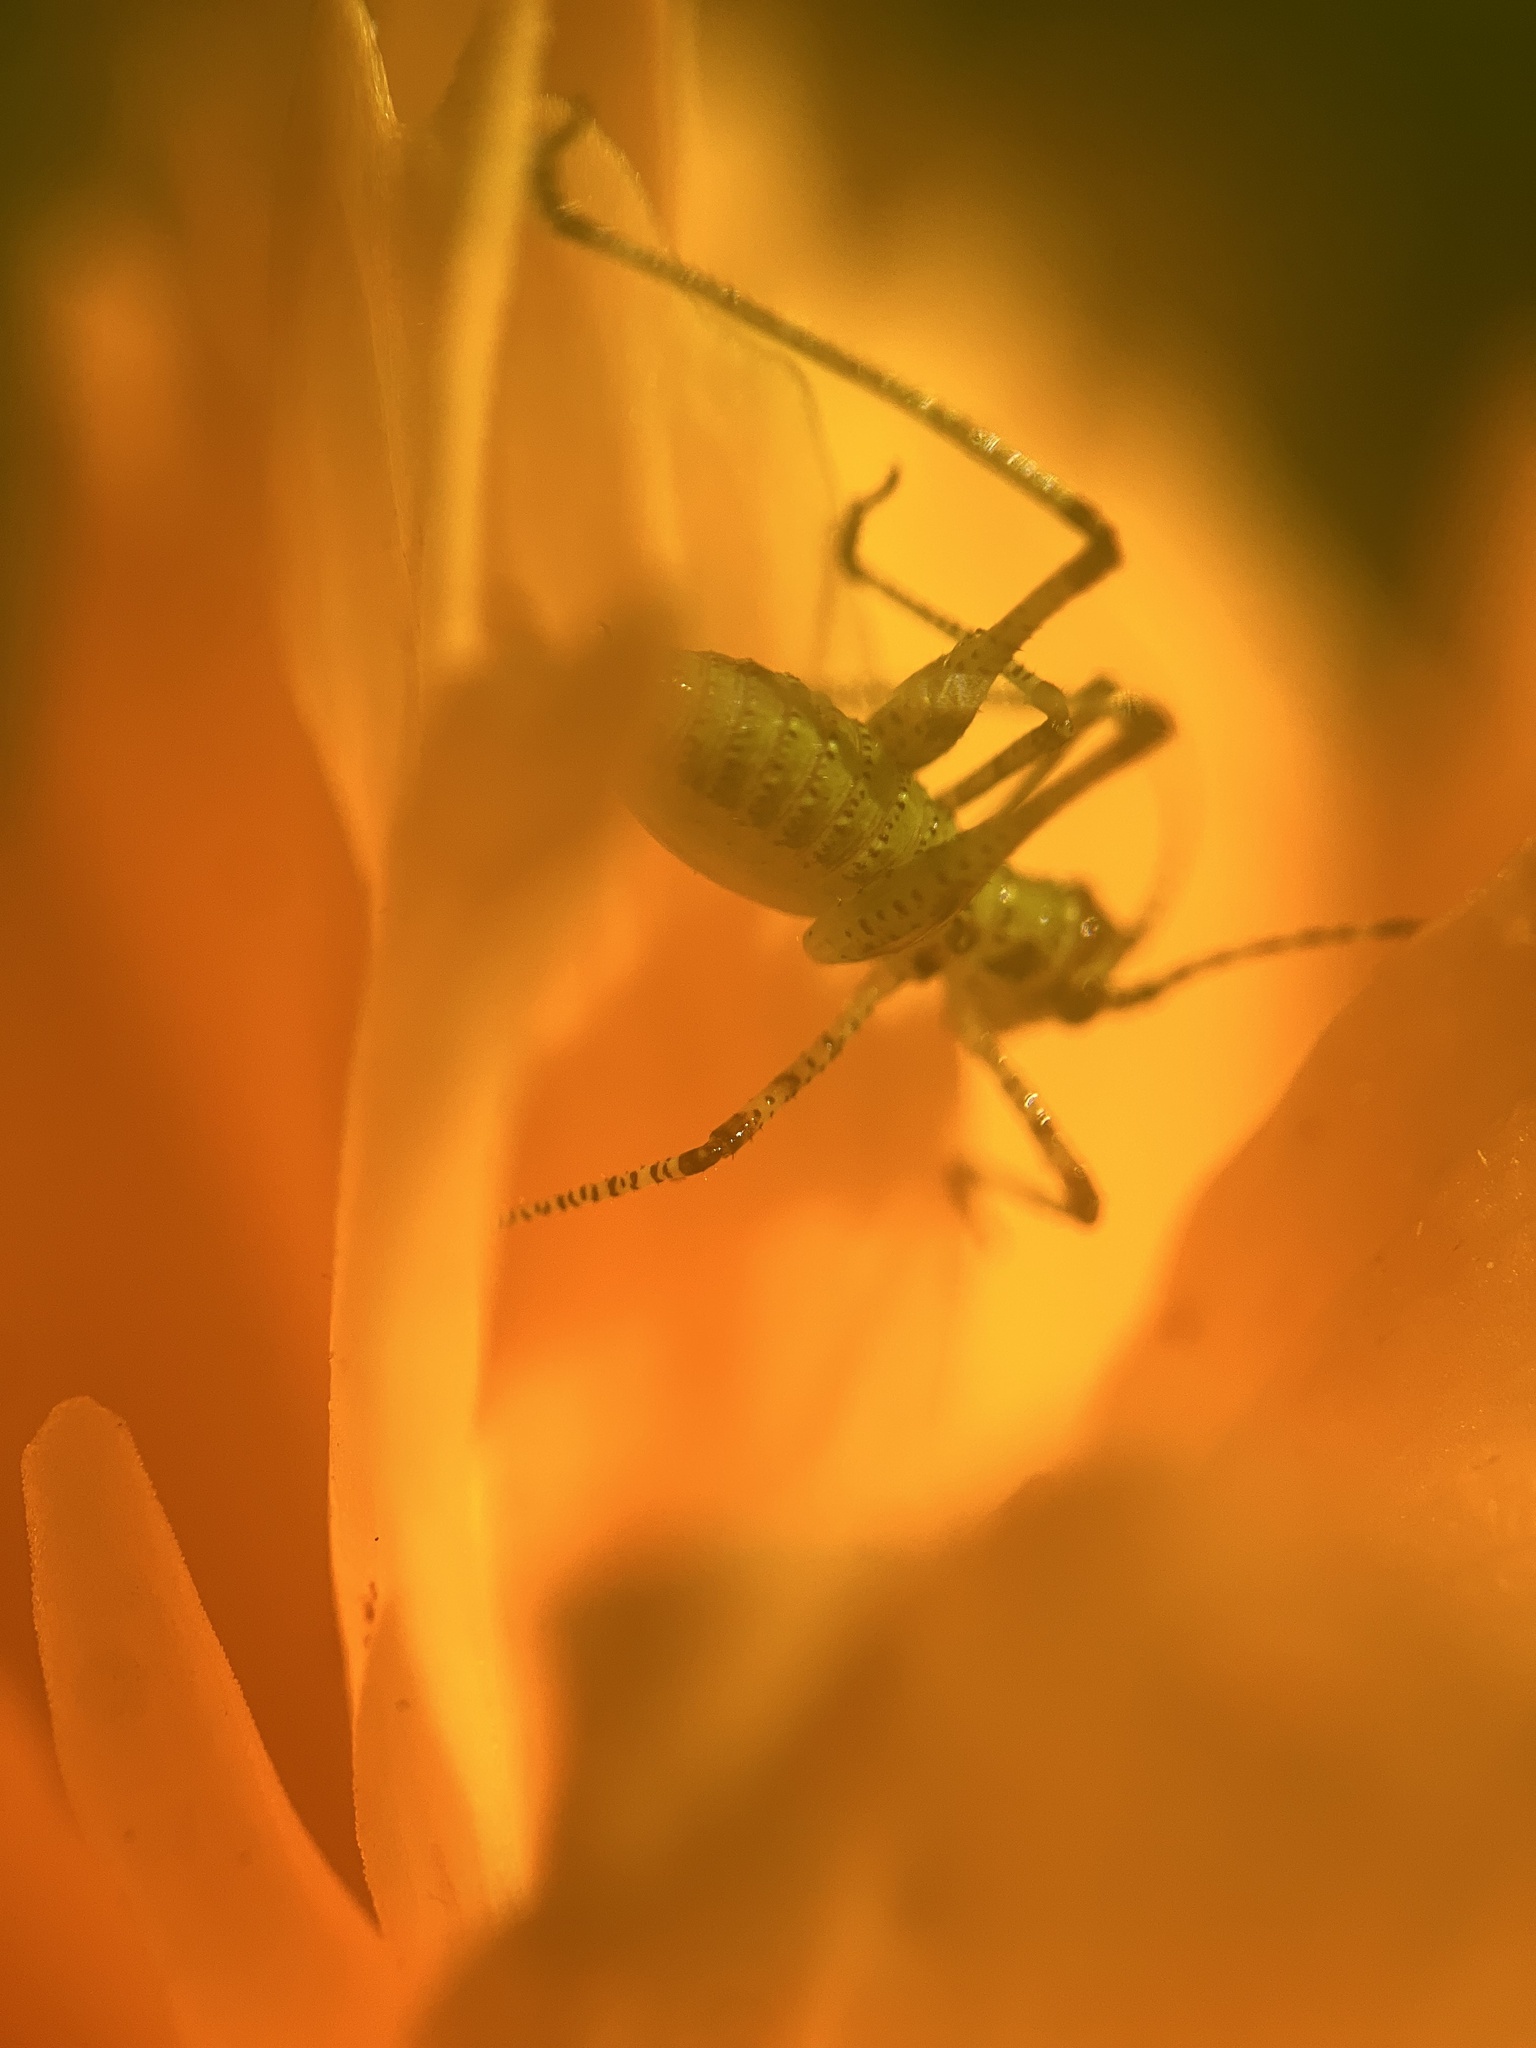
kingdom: Animalia
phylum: Arthropoda
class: Insecta
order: Orthoptera
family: Tettigoniidae
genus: Phaneroptera
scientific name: Phaneroptera nana
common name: Southern sickle bush-cricket
